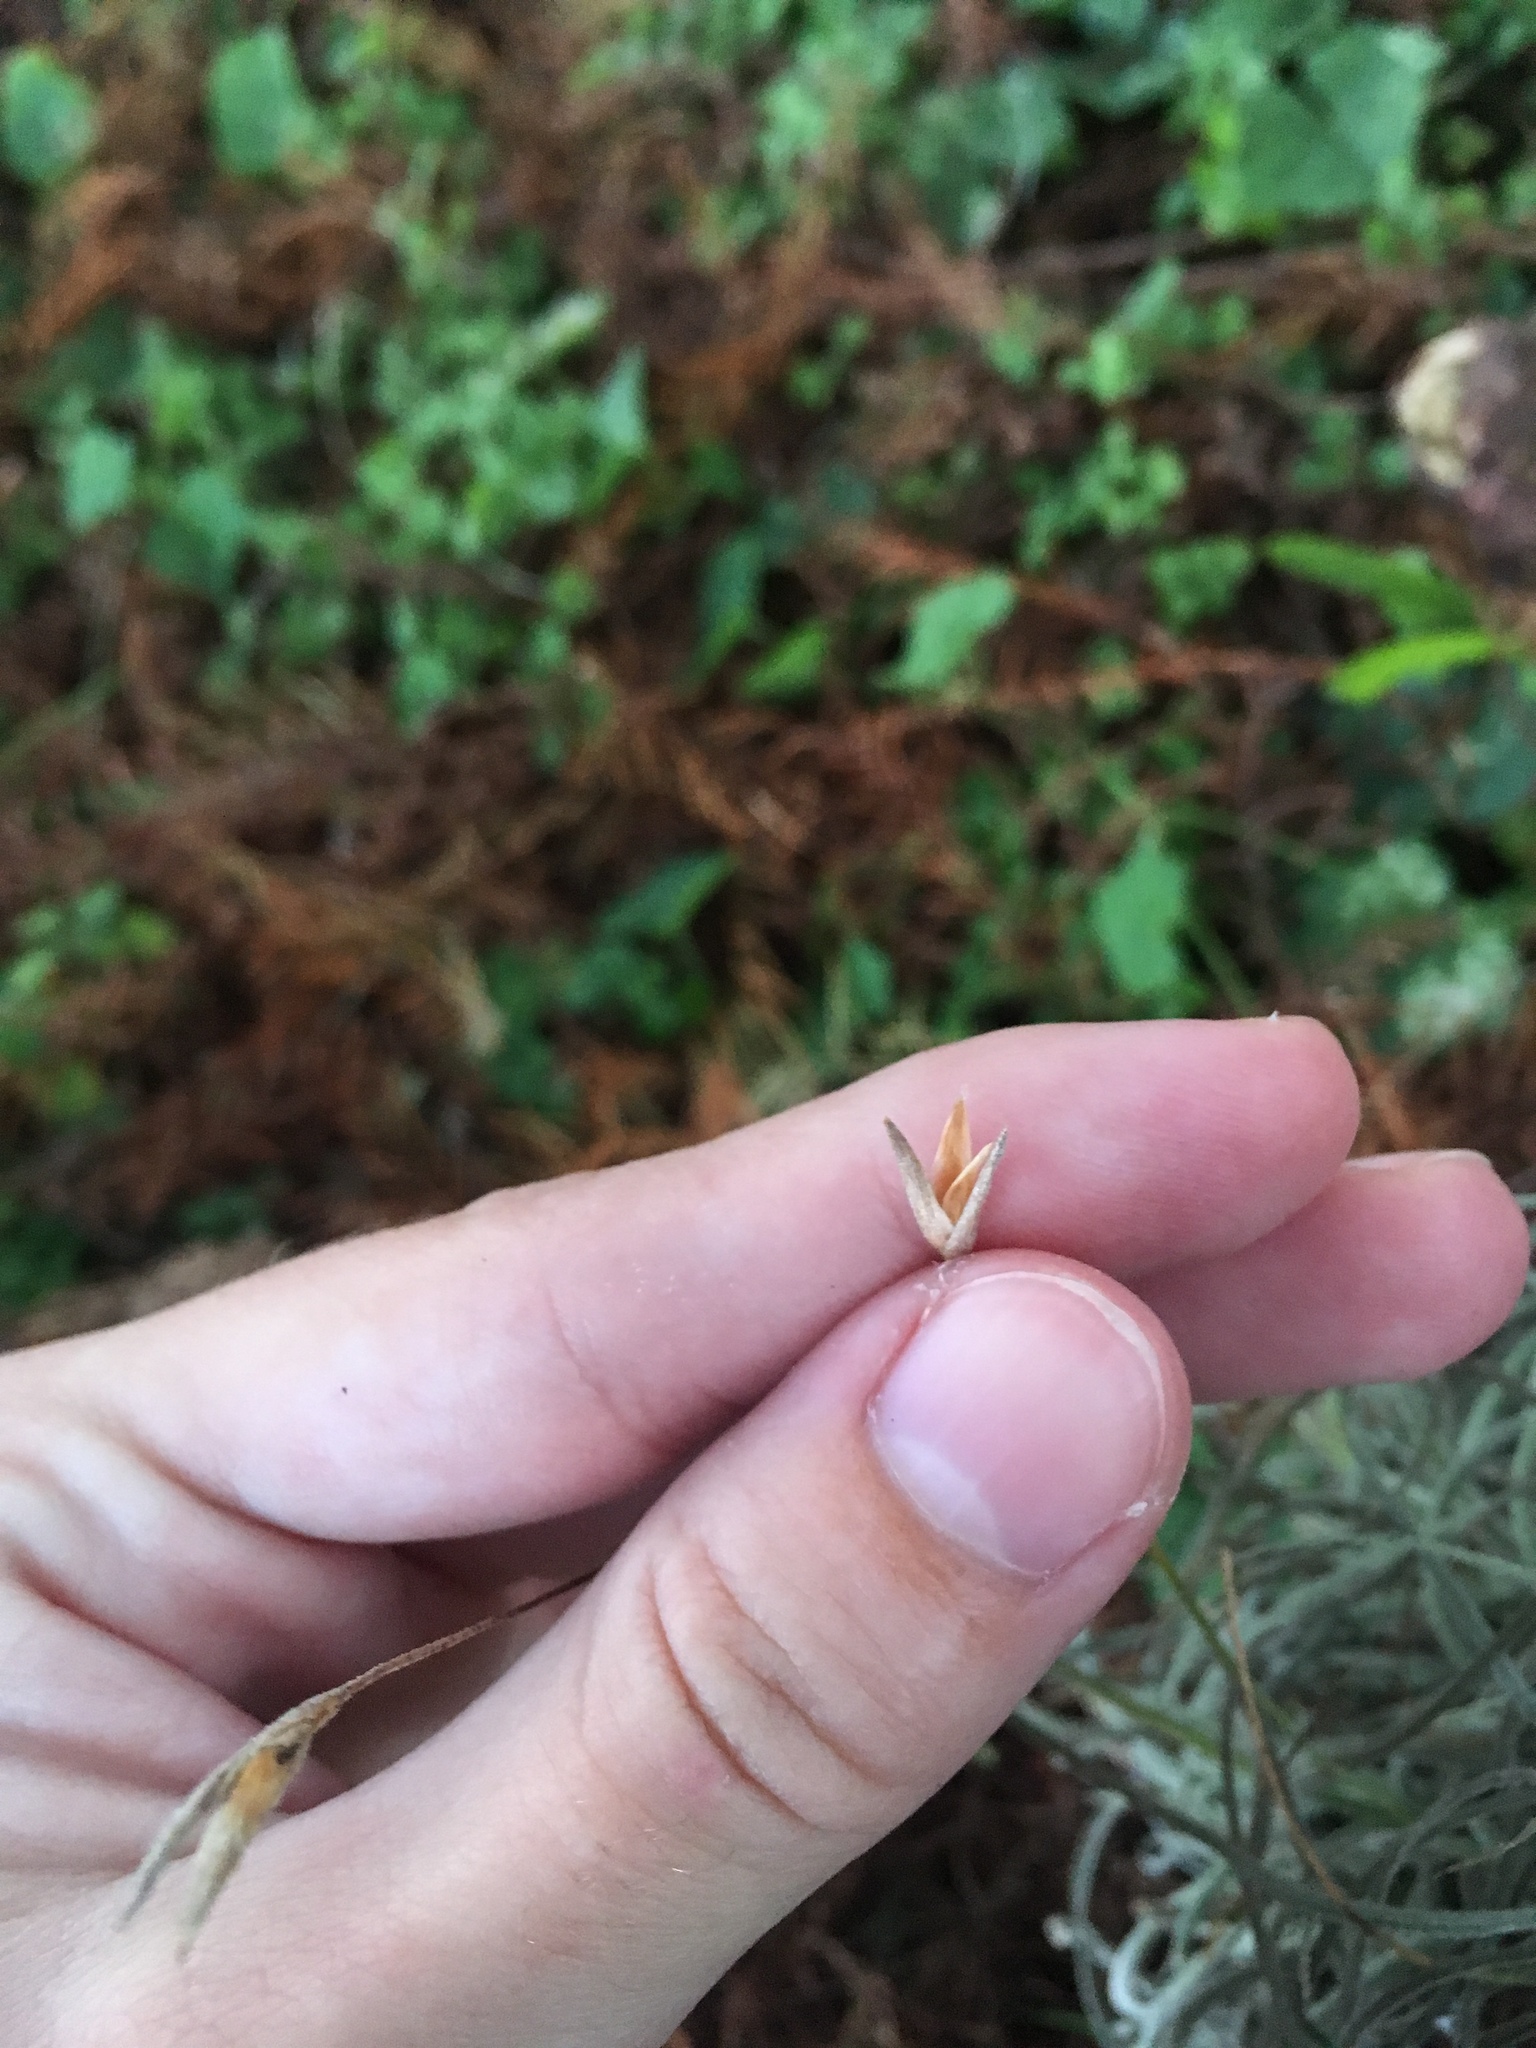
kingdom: Plantae
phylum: Tracheophyta
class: Liliopsida
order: Poales
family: Bromeliaceae
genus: Tillandsia
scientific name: Tillandsia recurvata
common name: Small ballmoss
